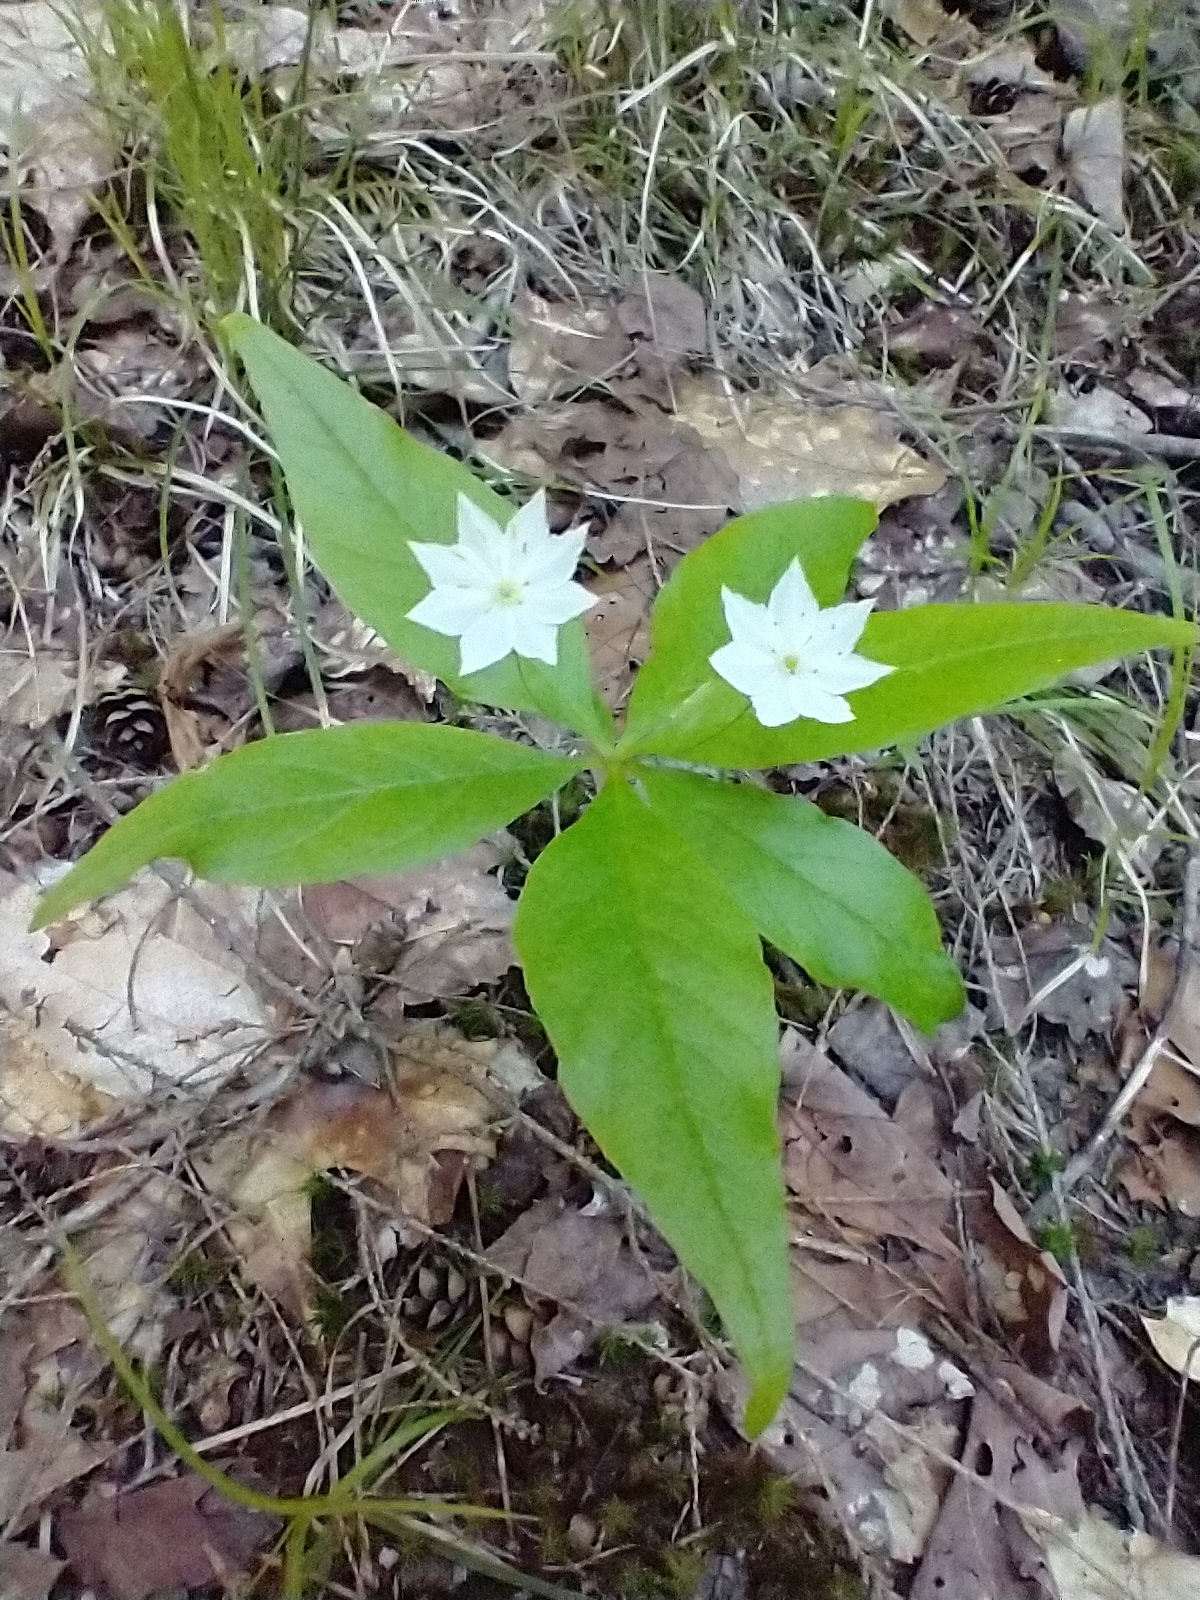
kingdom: Plantae
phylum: Tracheophyta
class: Magnoliopsida
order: Ericales
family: Primulaceae
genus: Lysimachia
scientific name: Lysimachia borealis
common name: American starflower
